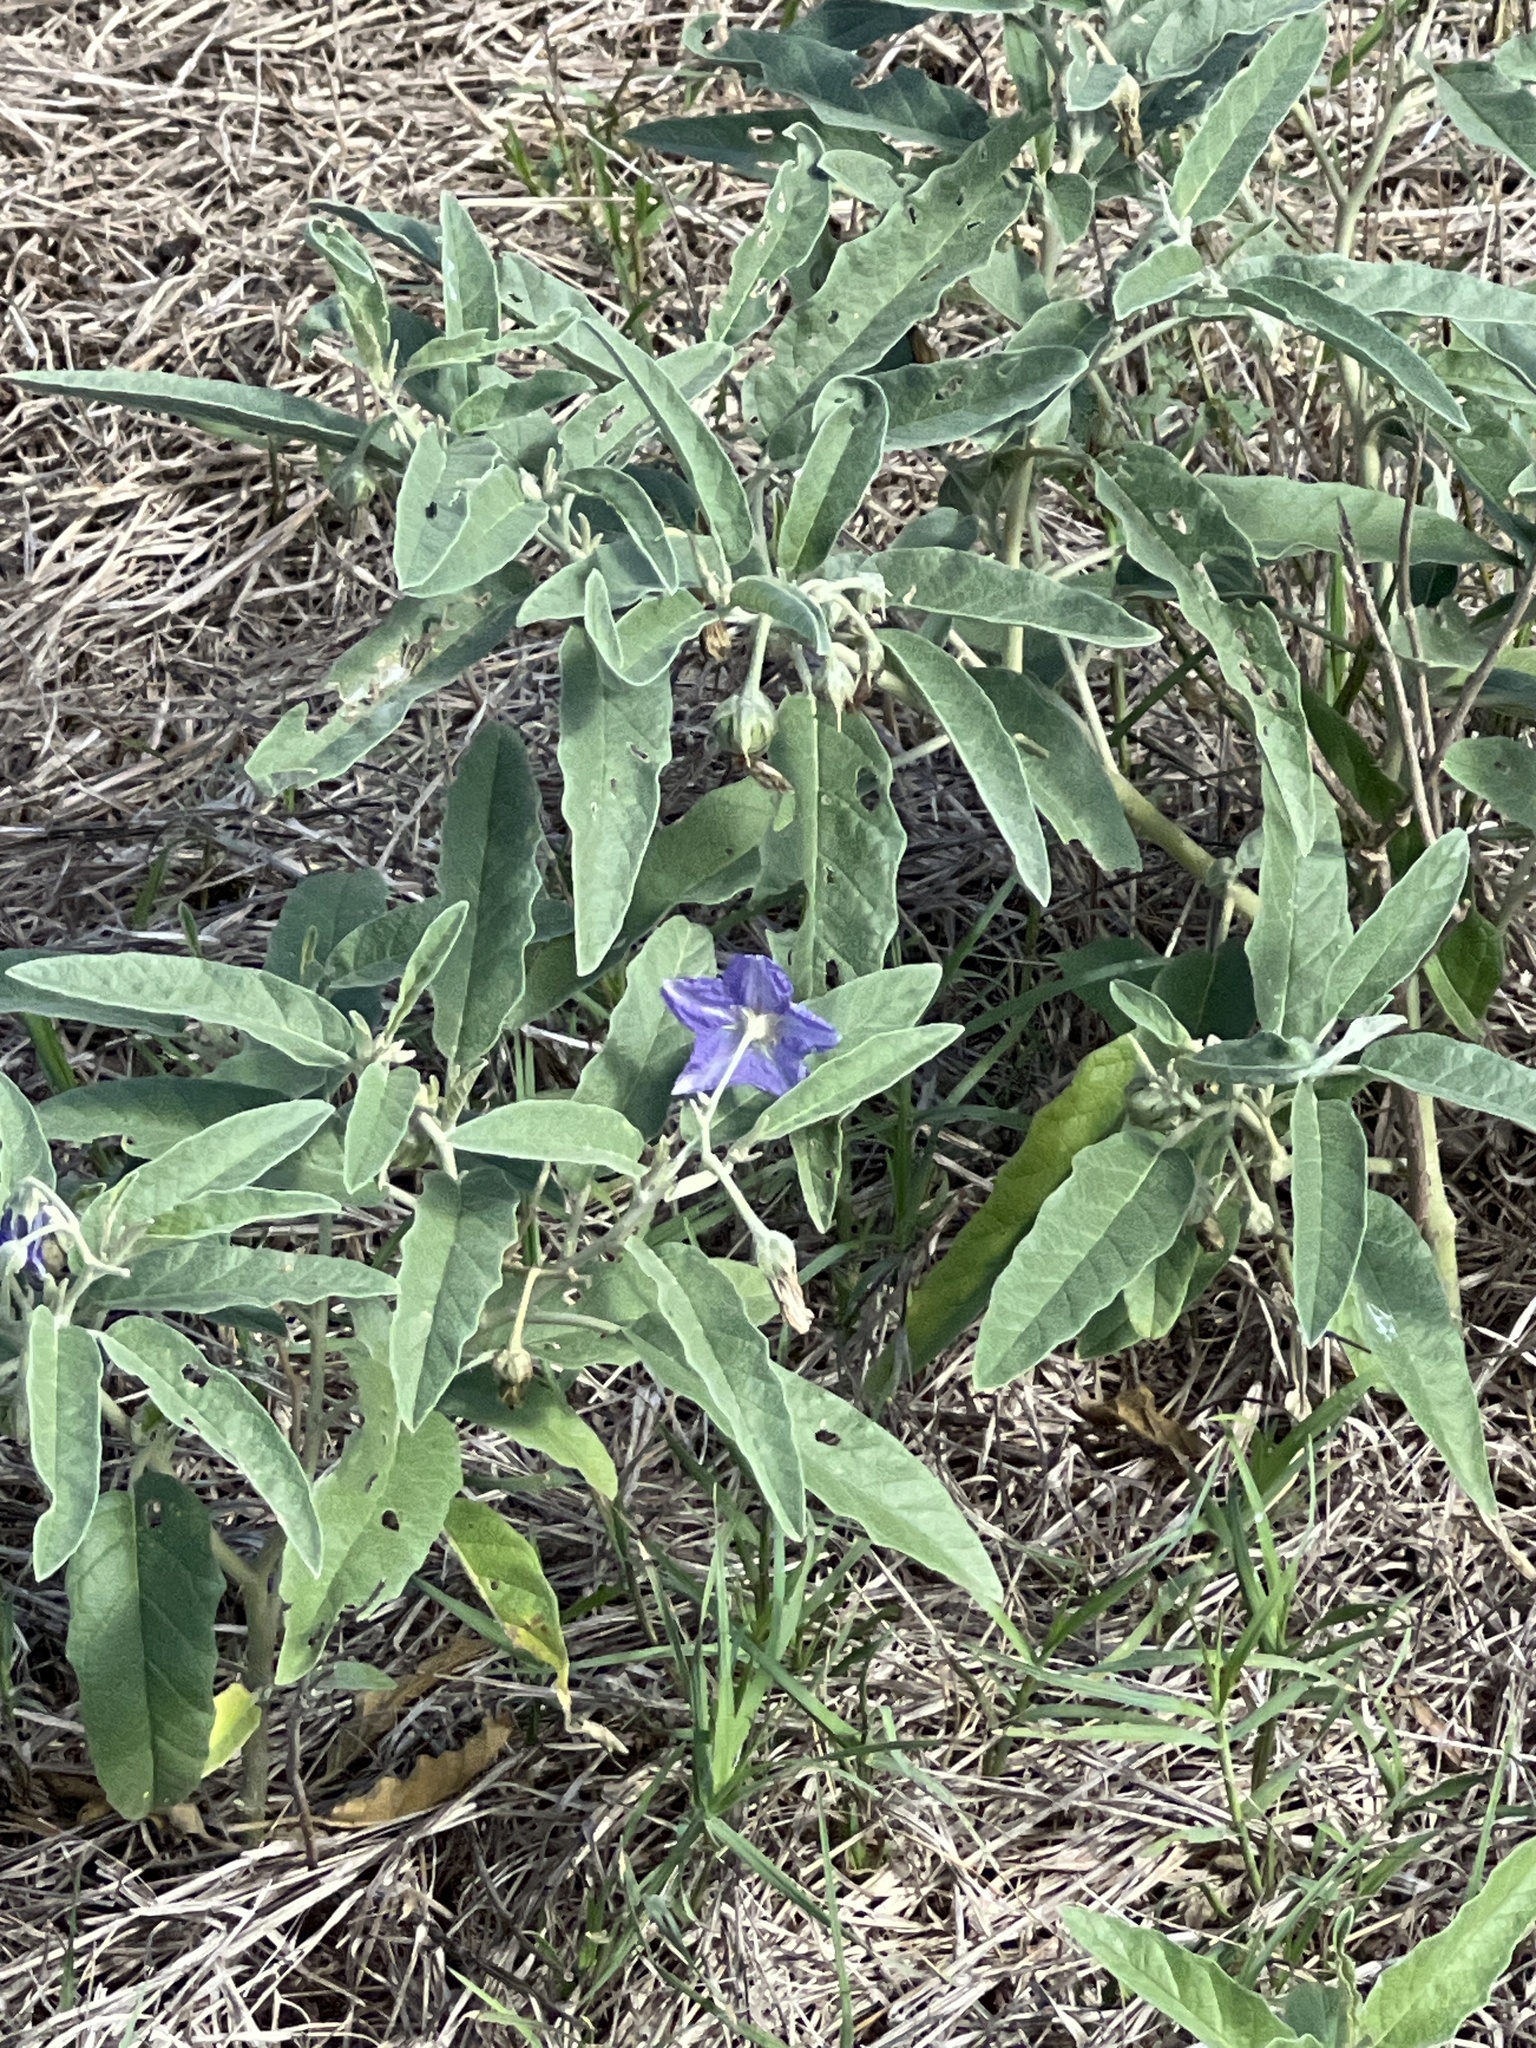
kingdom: Plantae
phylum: Tracheophyta
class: Magnoliopsida
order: Solanales
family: Solanaceae
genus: Solanum
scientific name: Solanum elaeagnifolium
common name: Silverleaf nightshade
